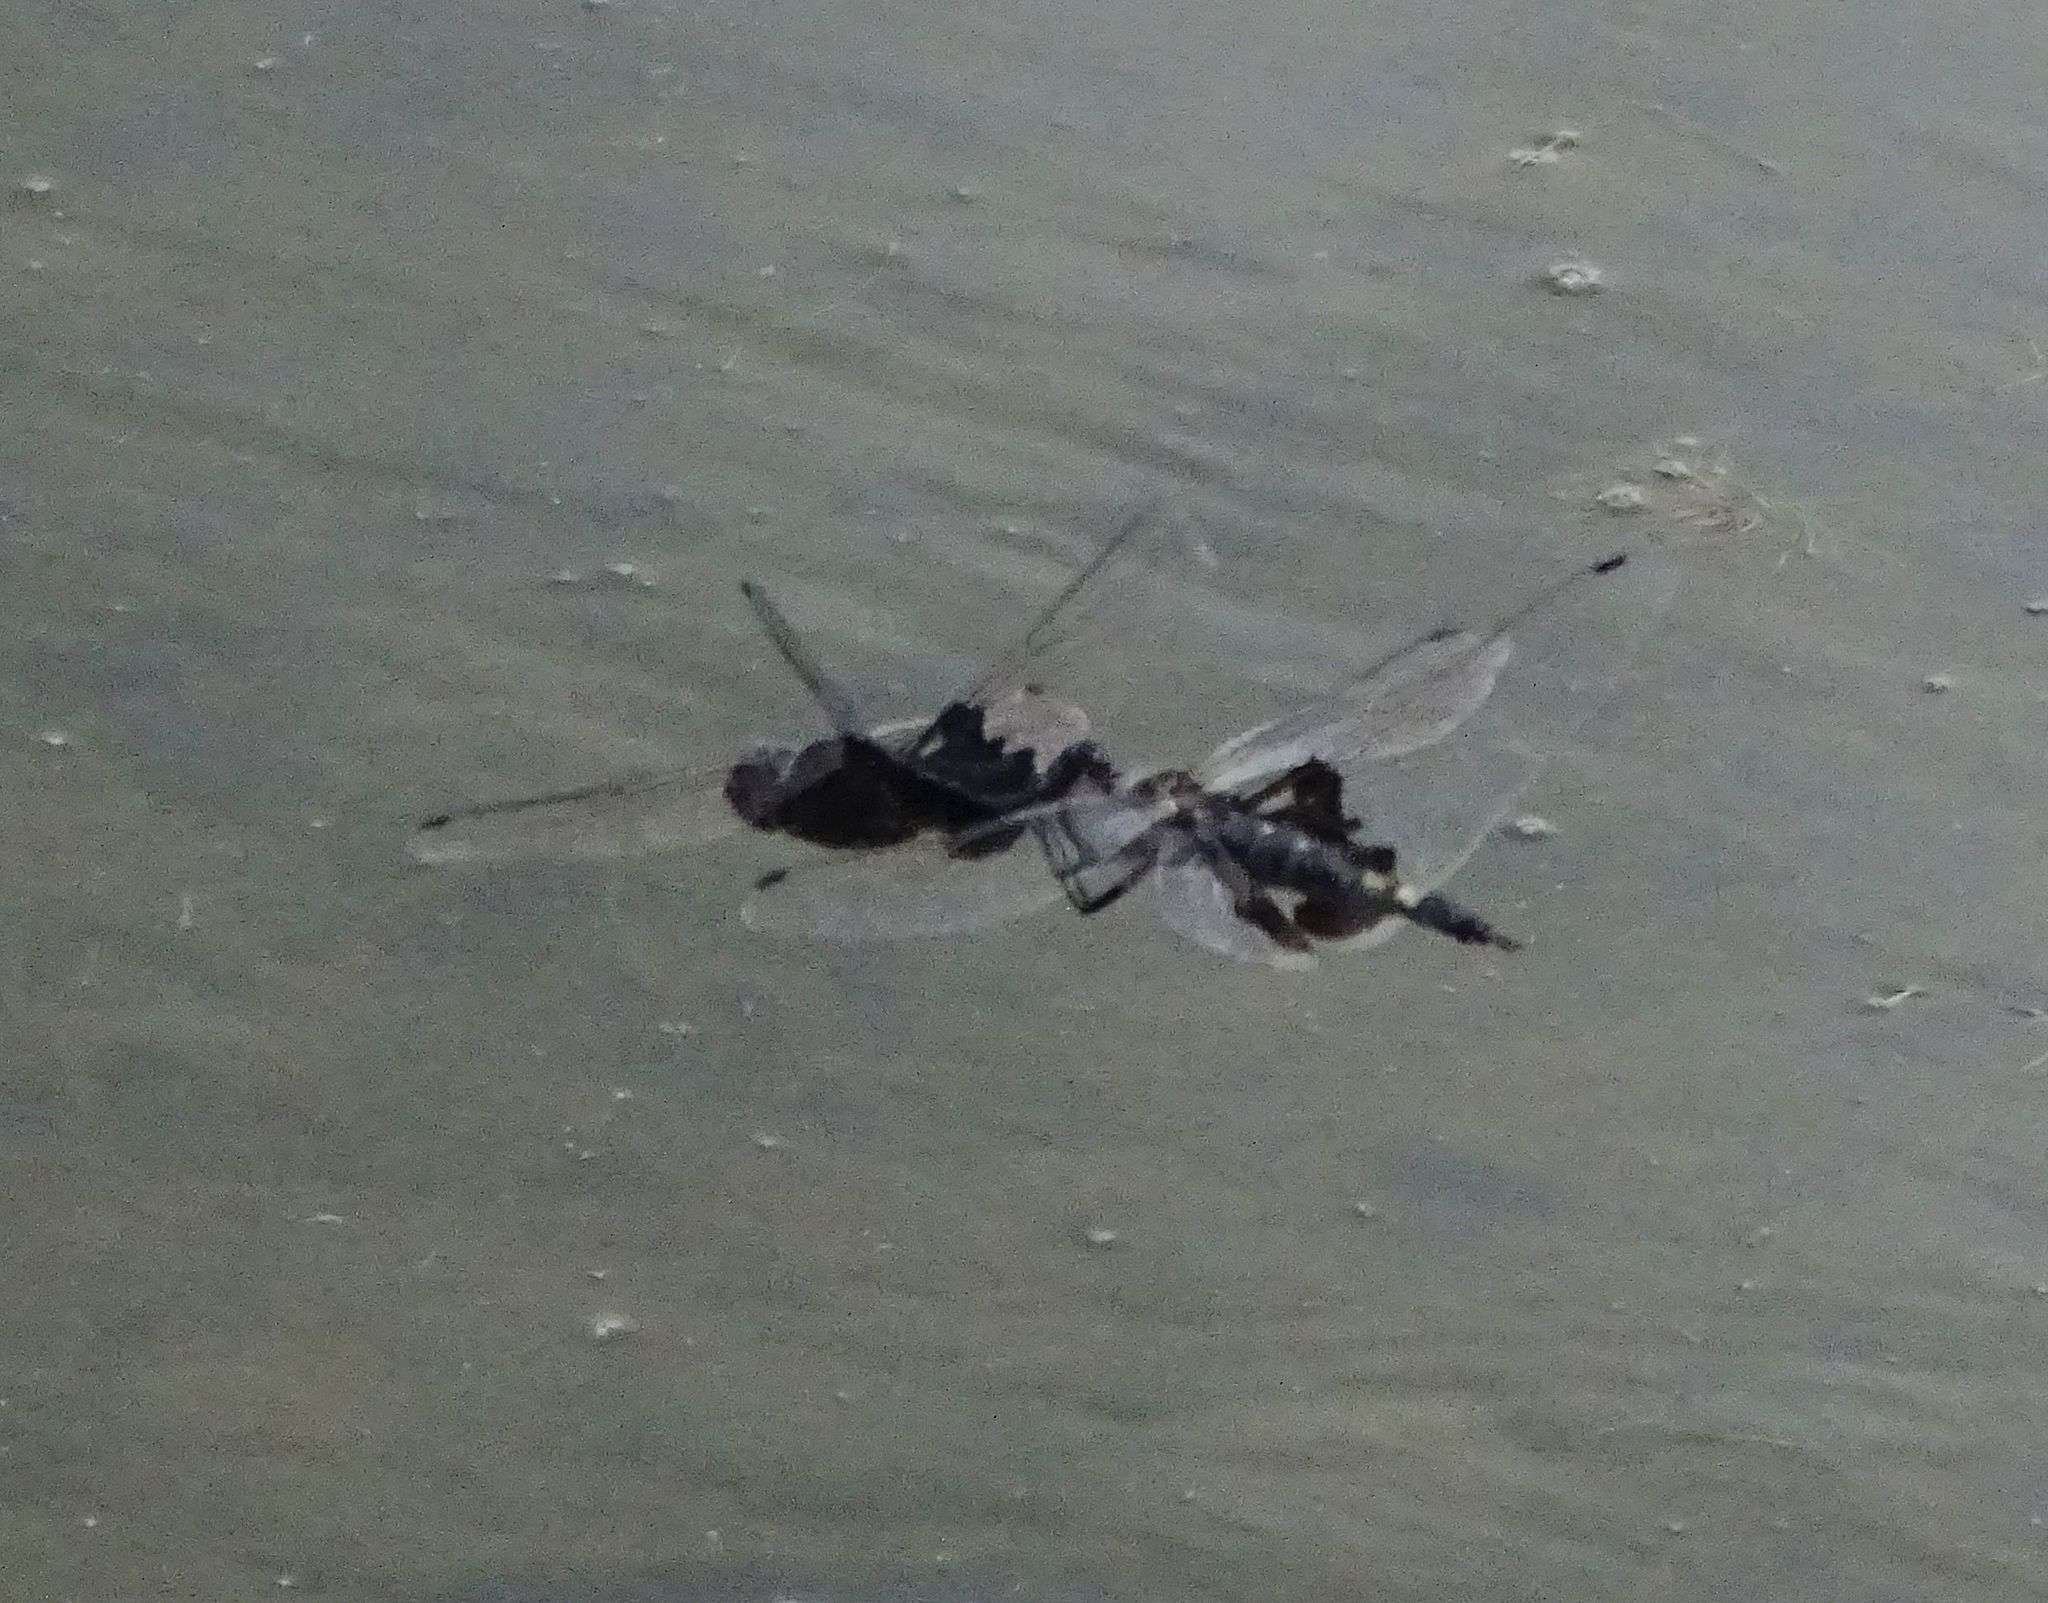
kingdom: Animalia
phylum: Arthropoda
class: Insecta
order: Odonata
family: Libellulidae
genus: Tramea
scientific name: Tramea lacerata
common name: Black saddlebags
